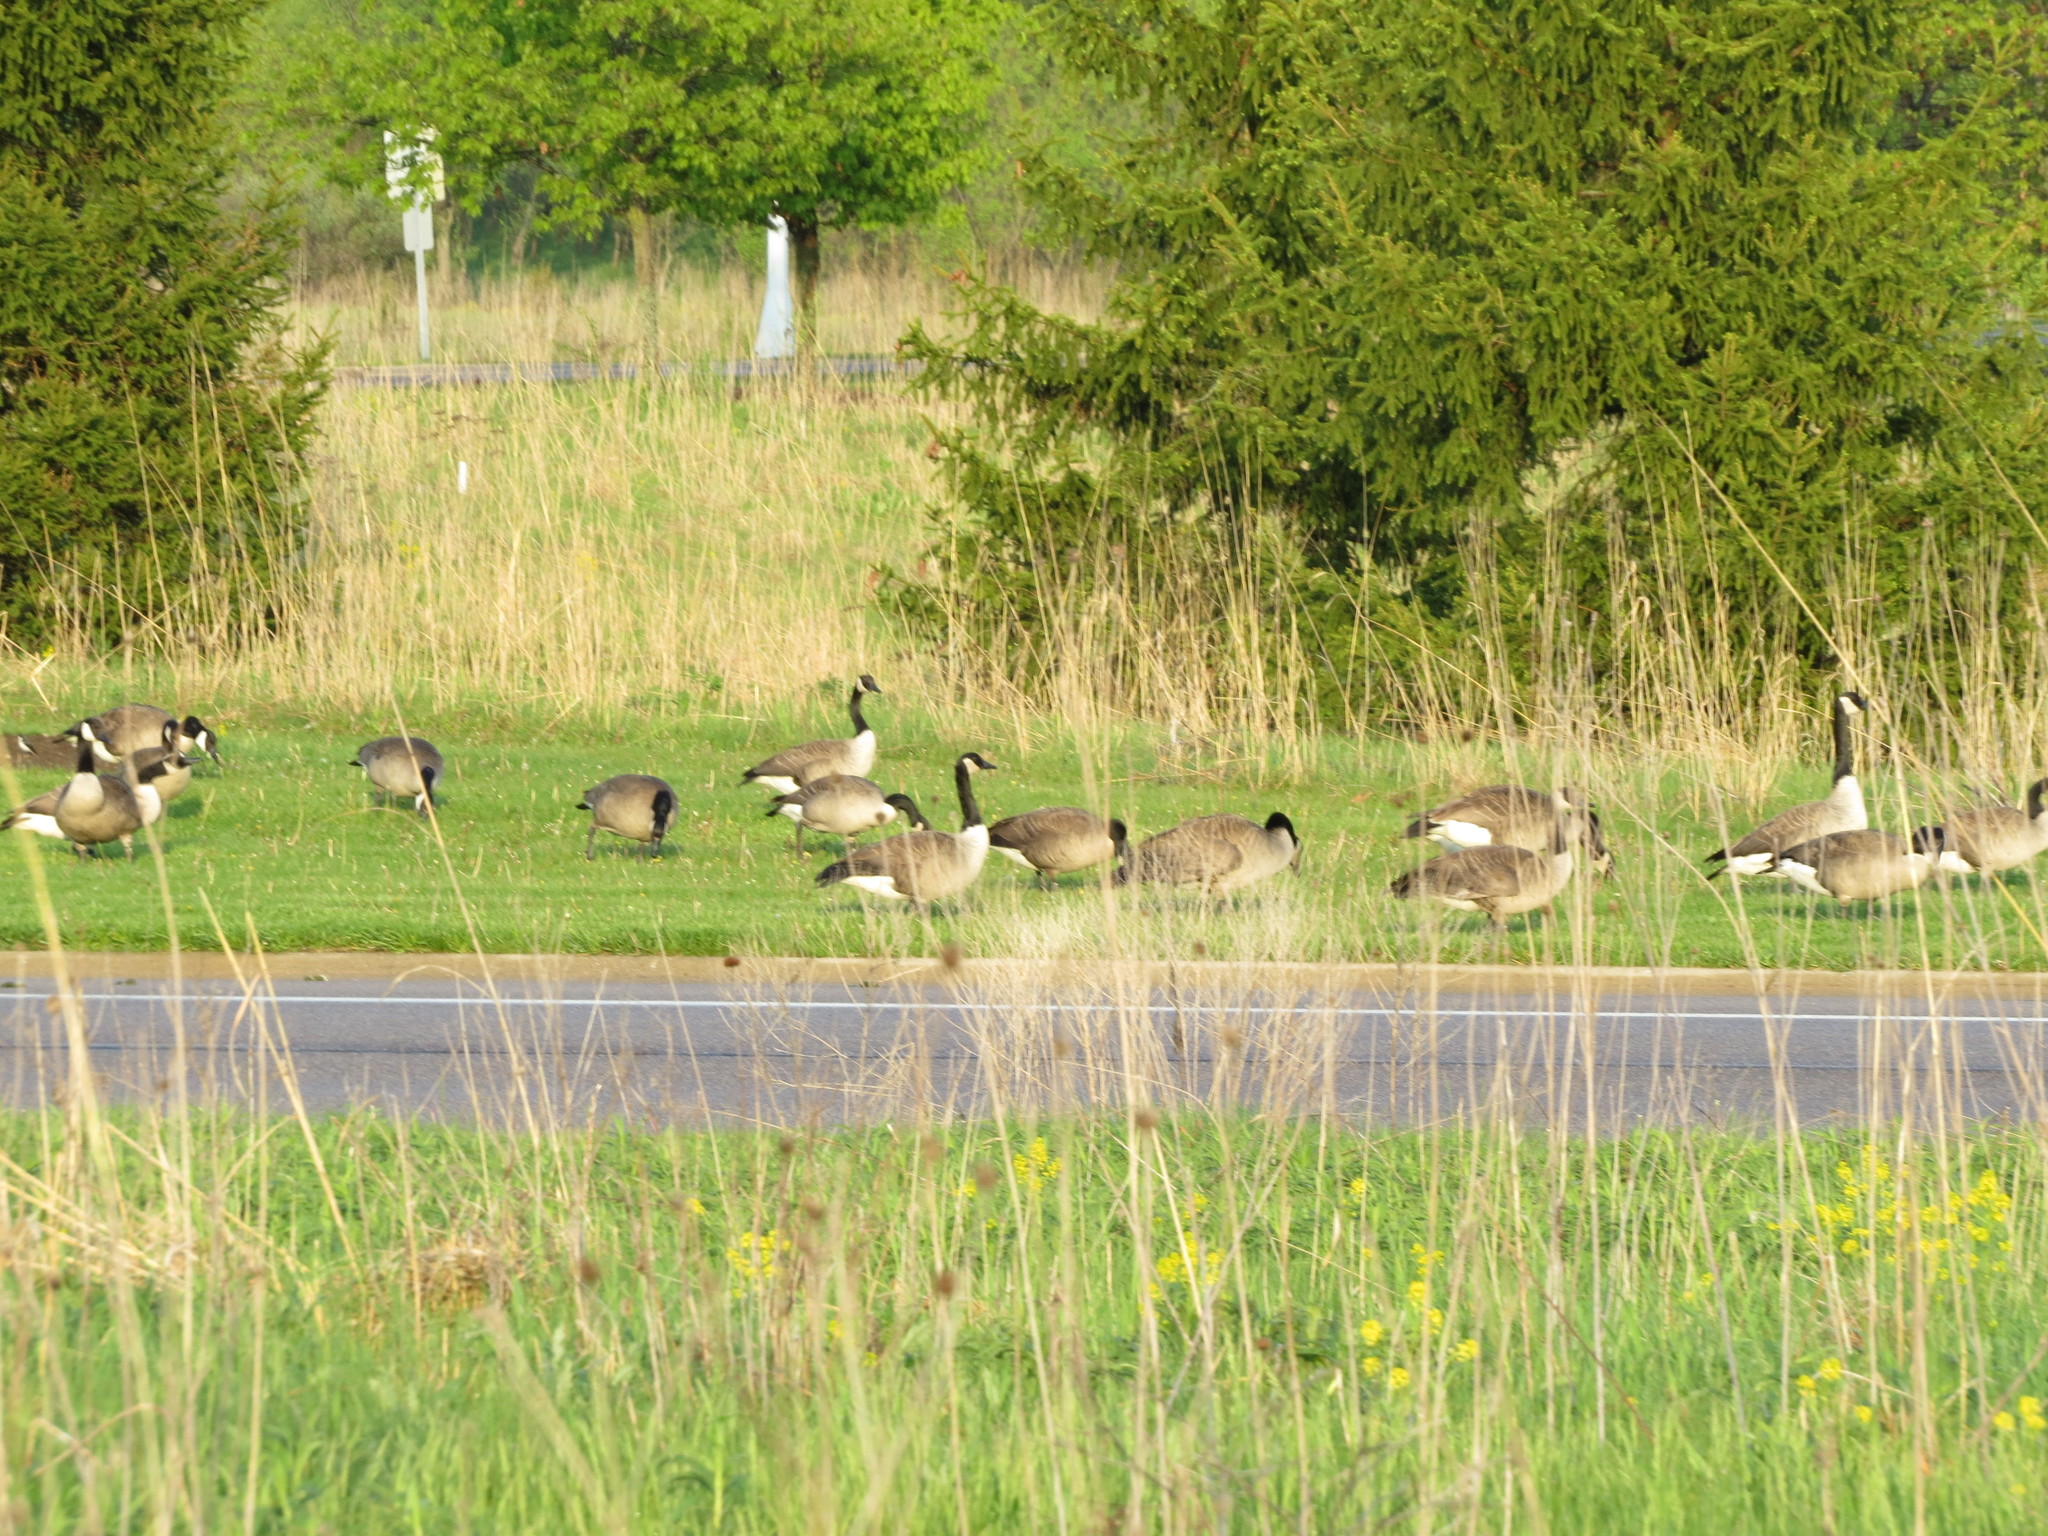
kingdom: Animalia
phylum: Chordata
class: Aves
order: Anseriformes
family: Anatidae
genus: Branta
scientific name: Branta canadensis
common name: Canada goose
